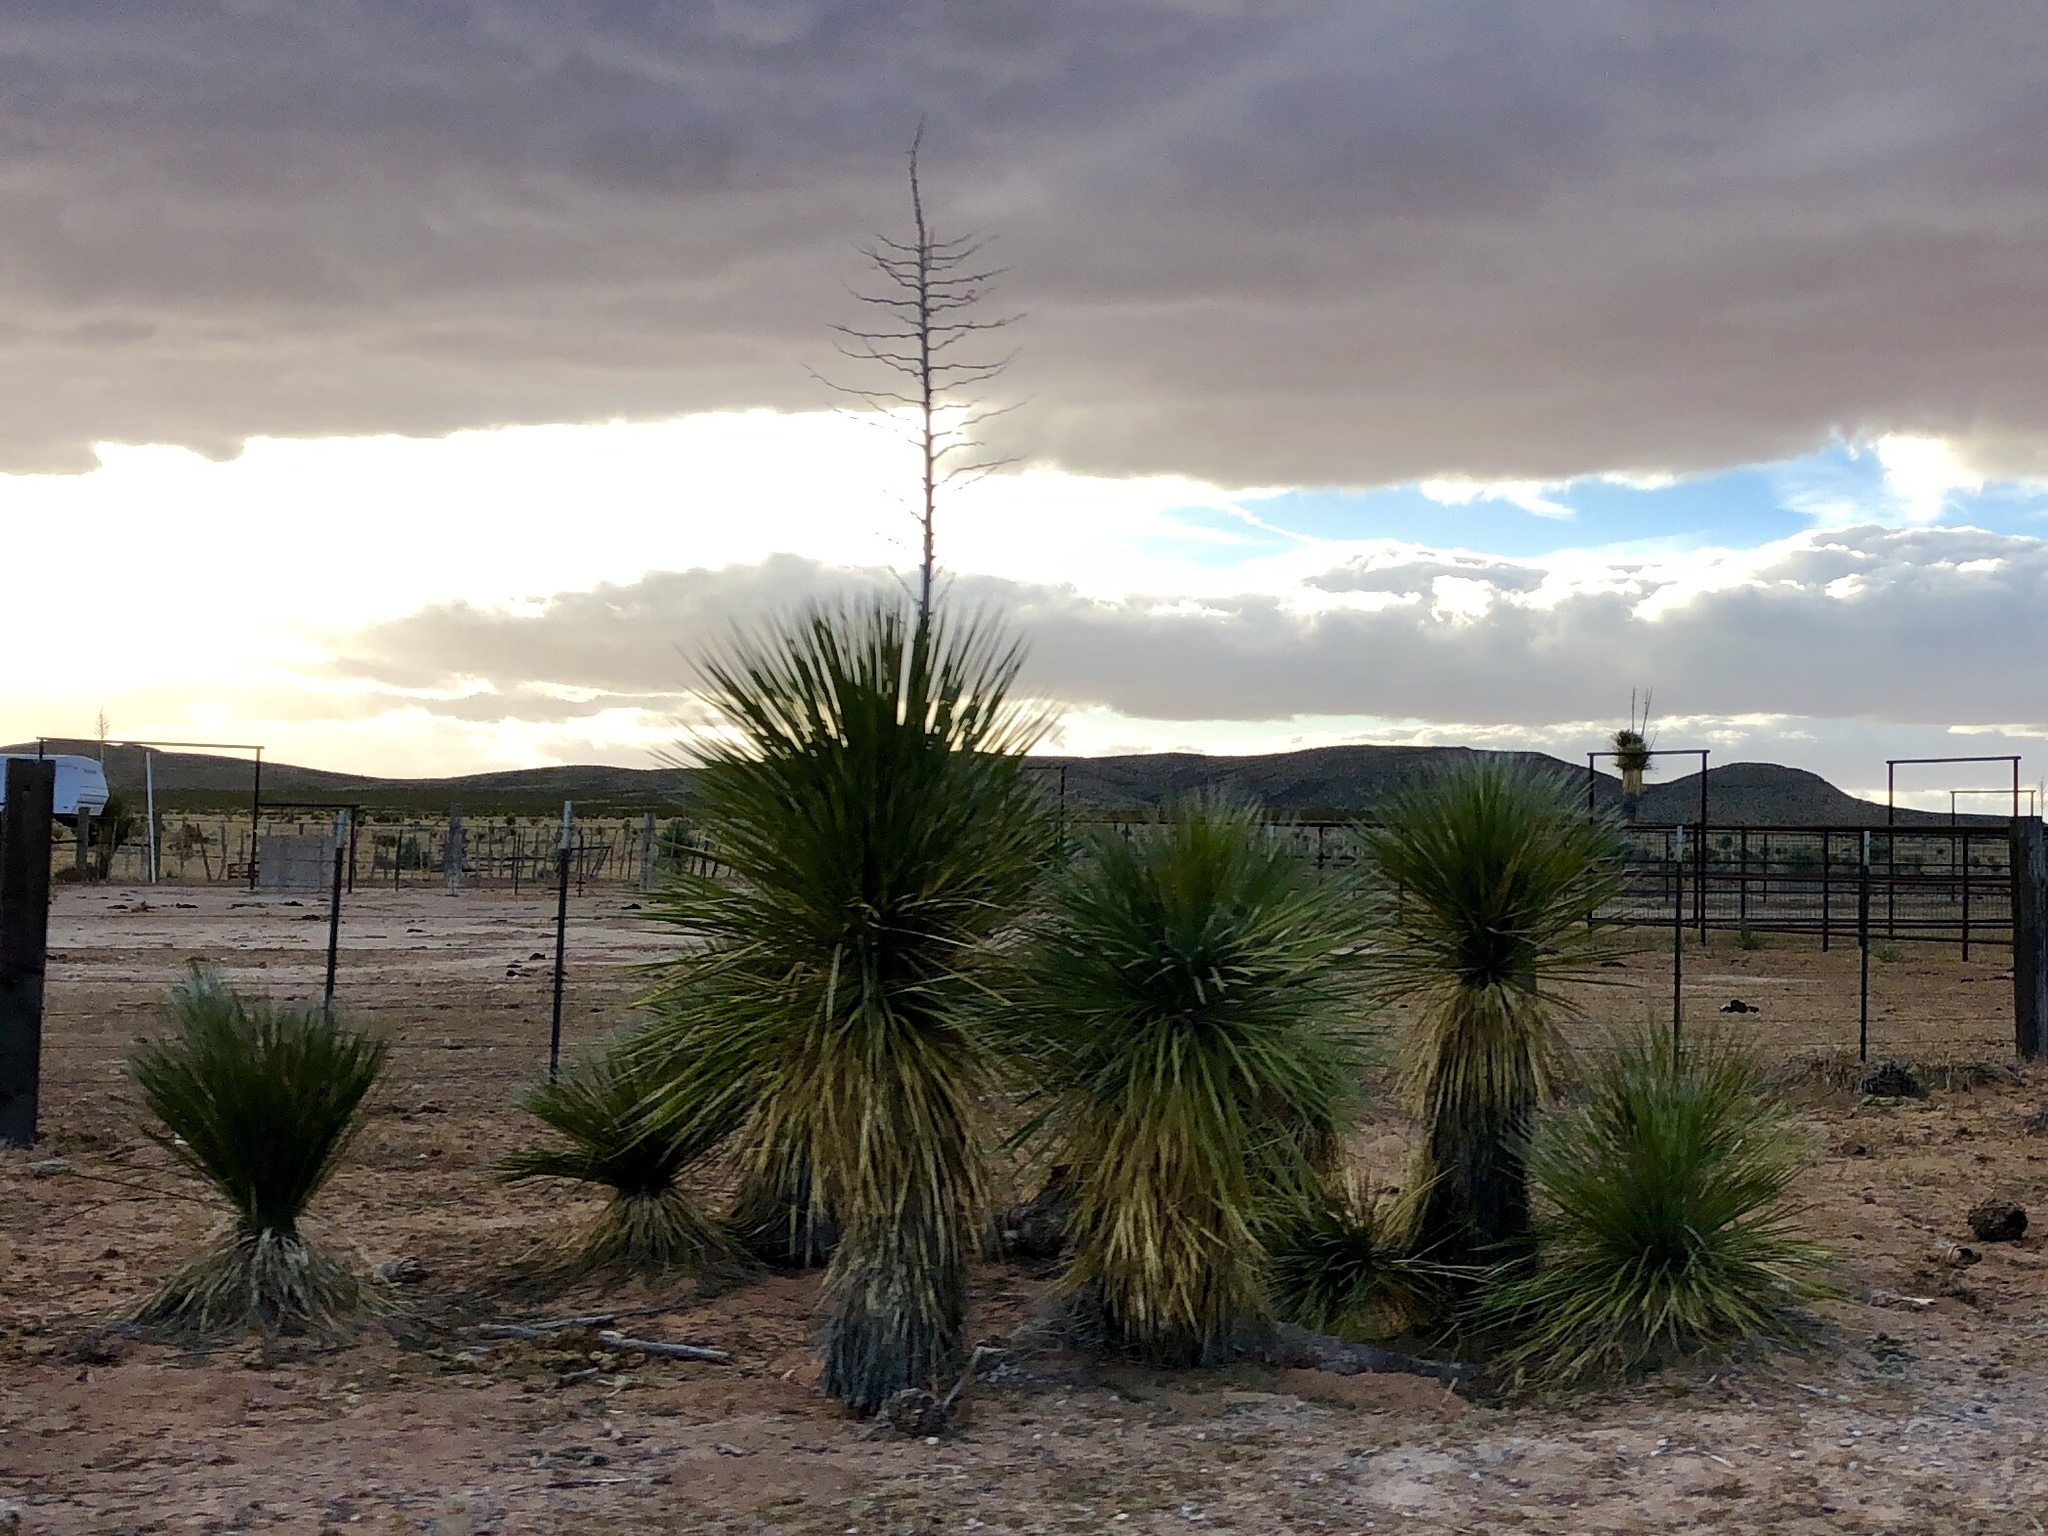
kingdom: Plantae
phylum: Tracheophyta
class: Liliopsida
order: Asparagales
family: Asparagaceae
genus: Yucca
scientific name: Yucca elata
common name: Palmella
